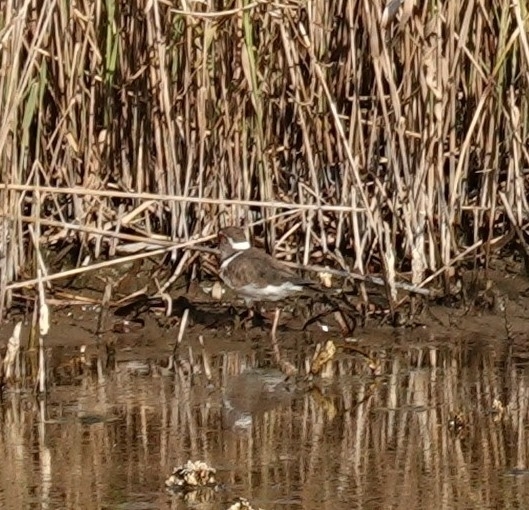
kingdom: Animalia
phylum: Chordata
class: Aves
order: Charadriiformes
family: Charadriidae
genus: Charadrius
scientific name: Charadrius tricollaris
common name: Three-banded plover
